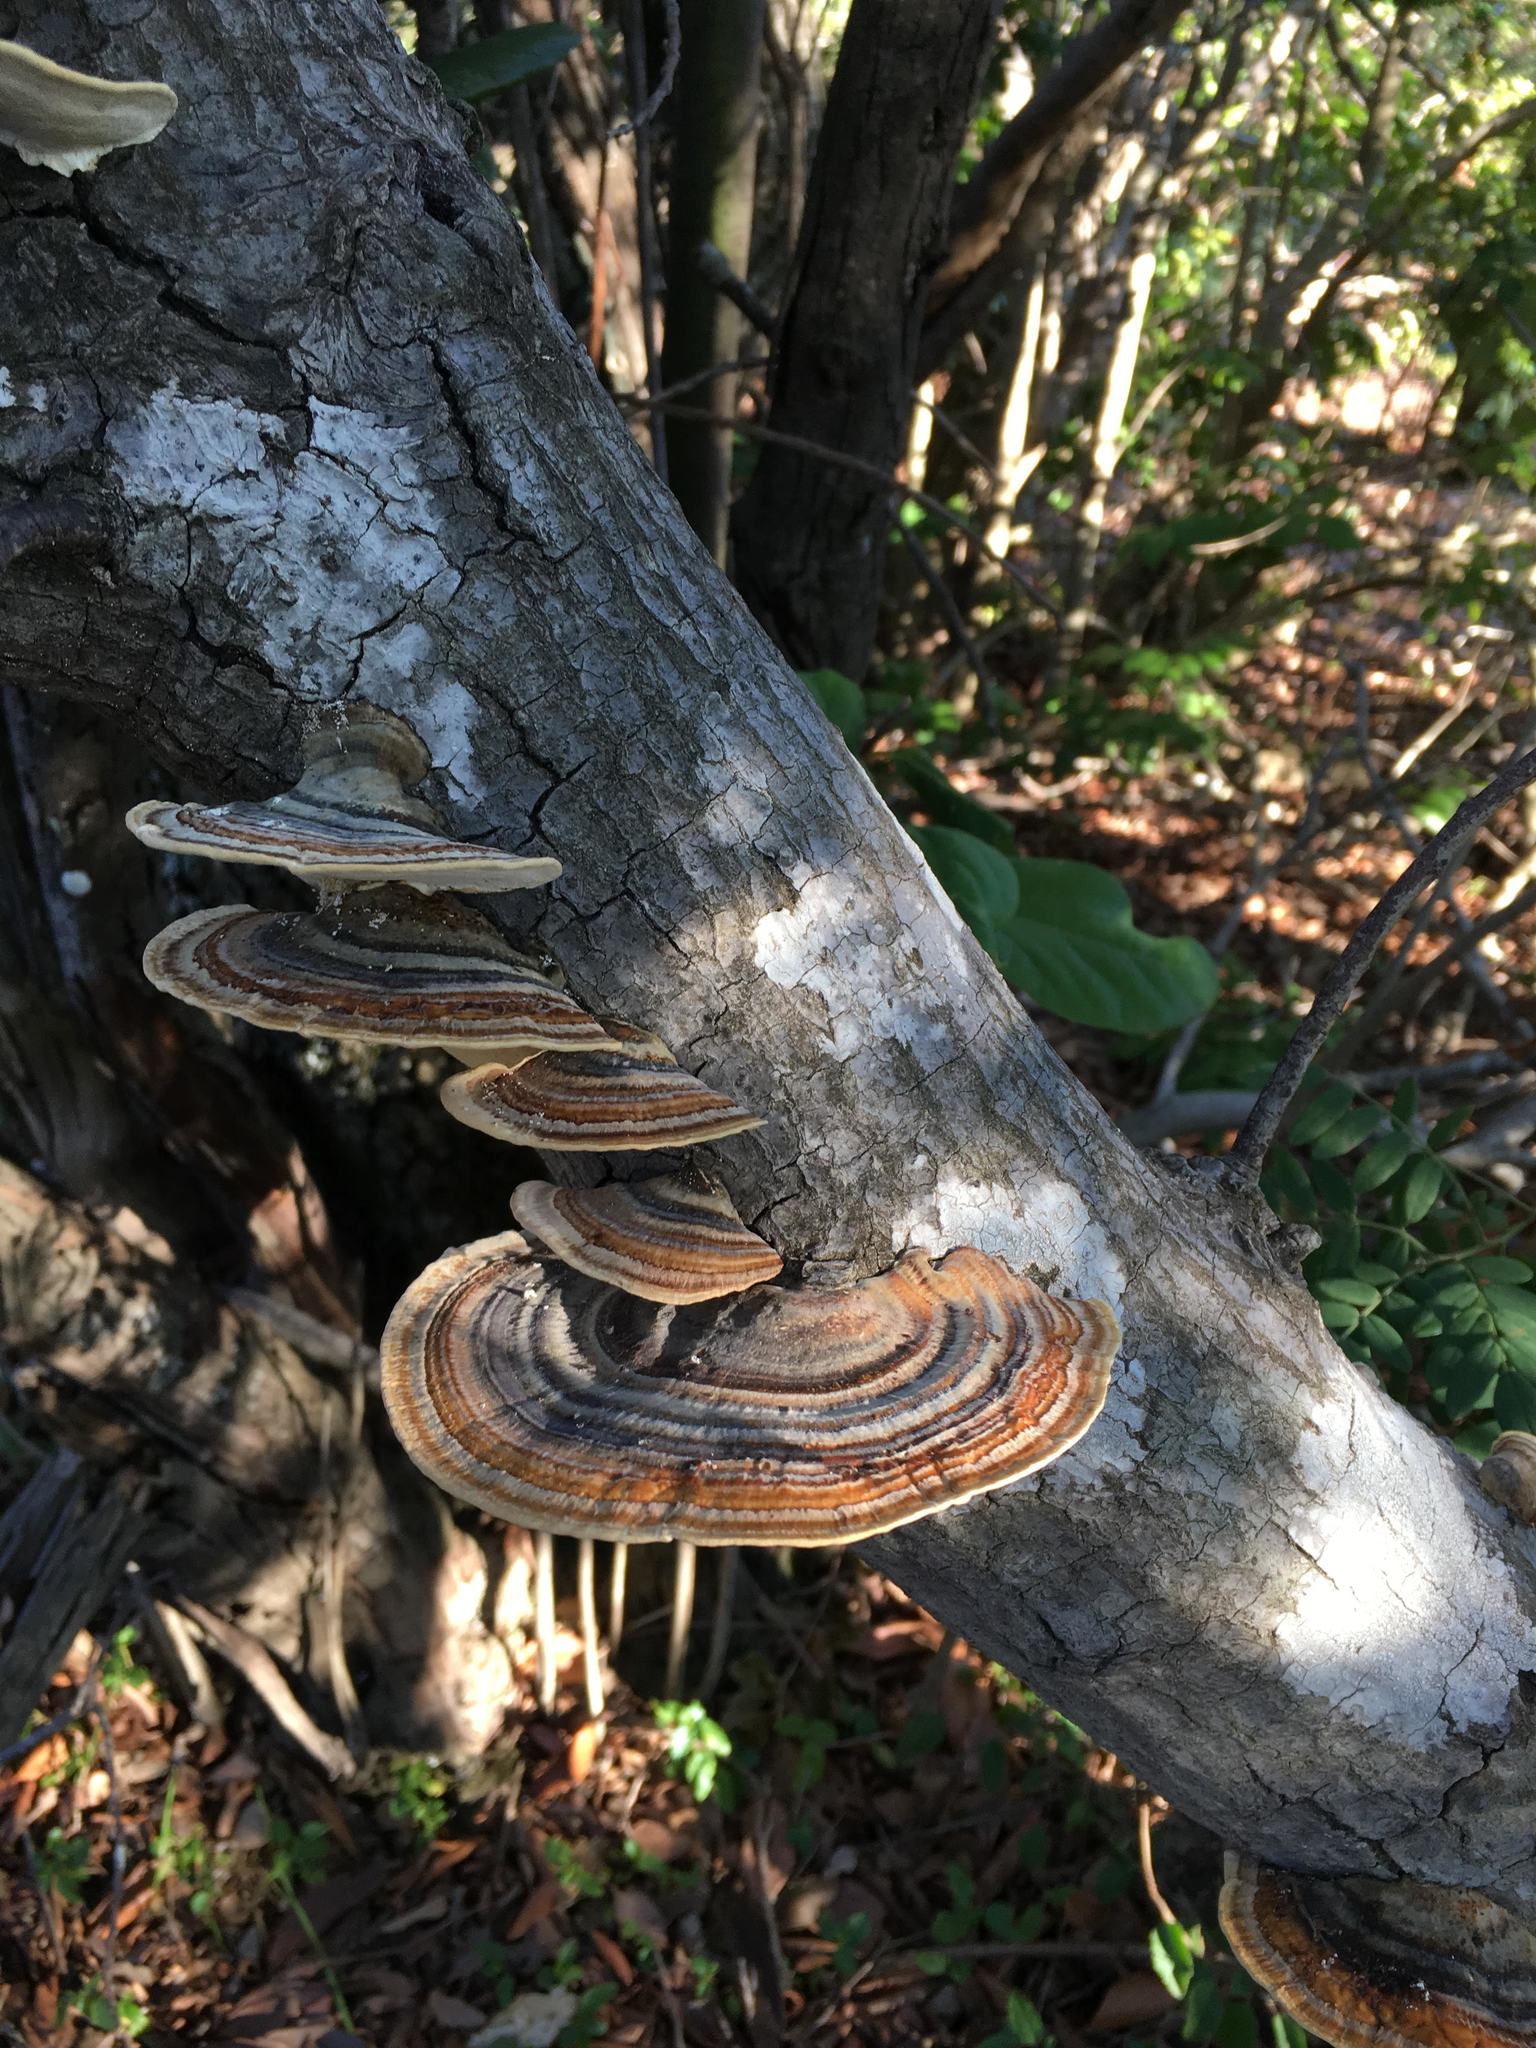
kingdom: Fungi
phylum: Basidiomycota
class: Agaricomycetes
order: Polyporales
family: Polyporaceae
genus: Trametes
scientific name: Trametes versicolor
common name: Turkeytail
